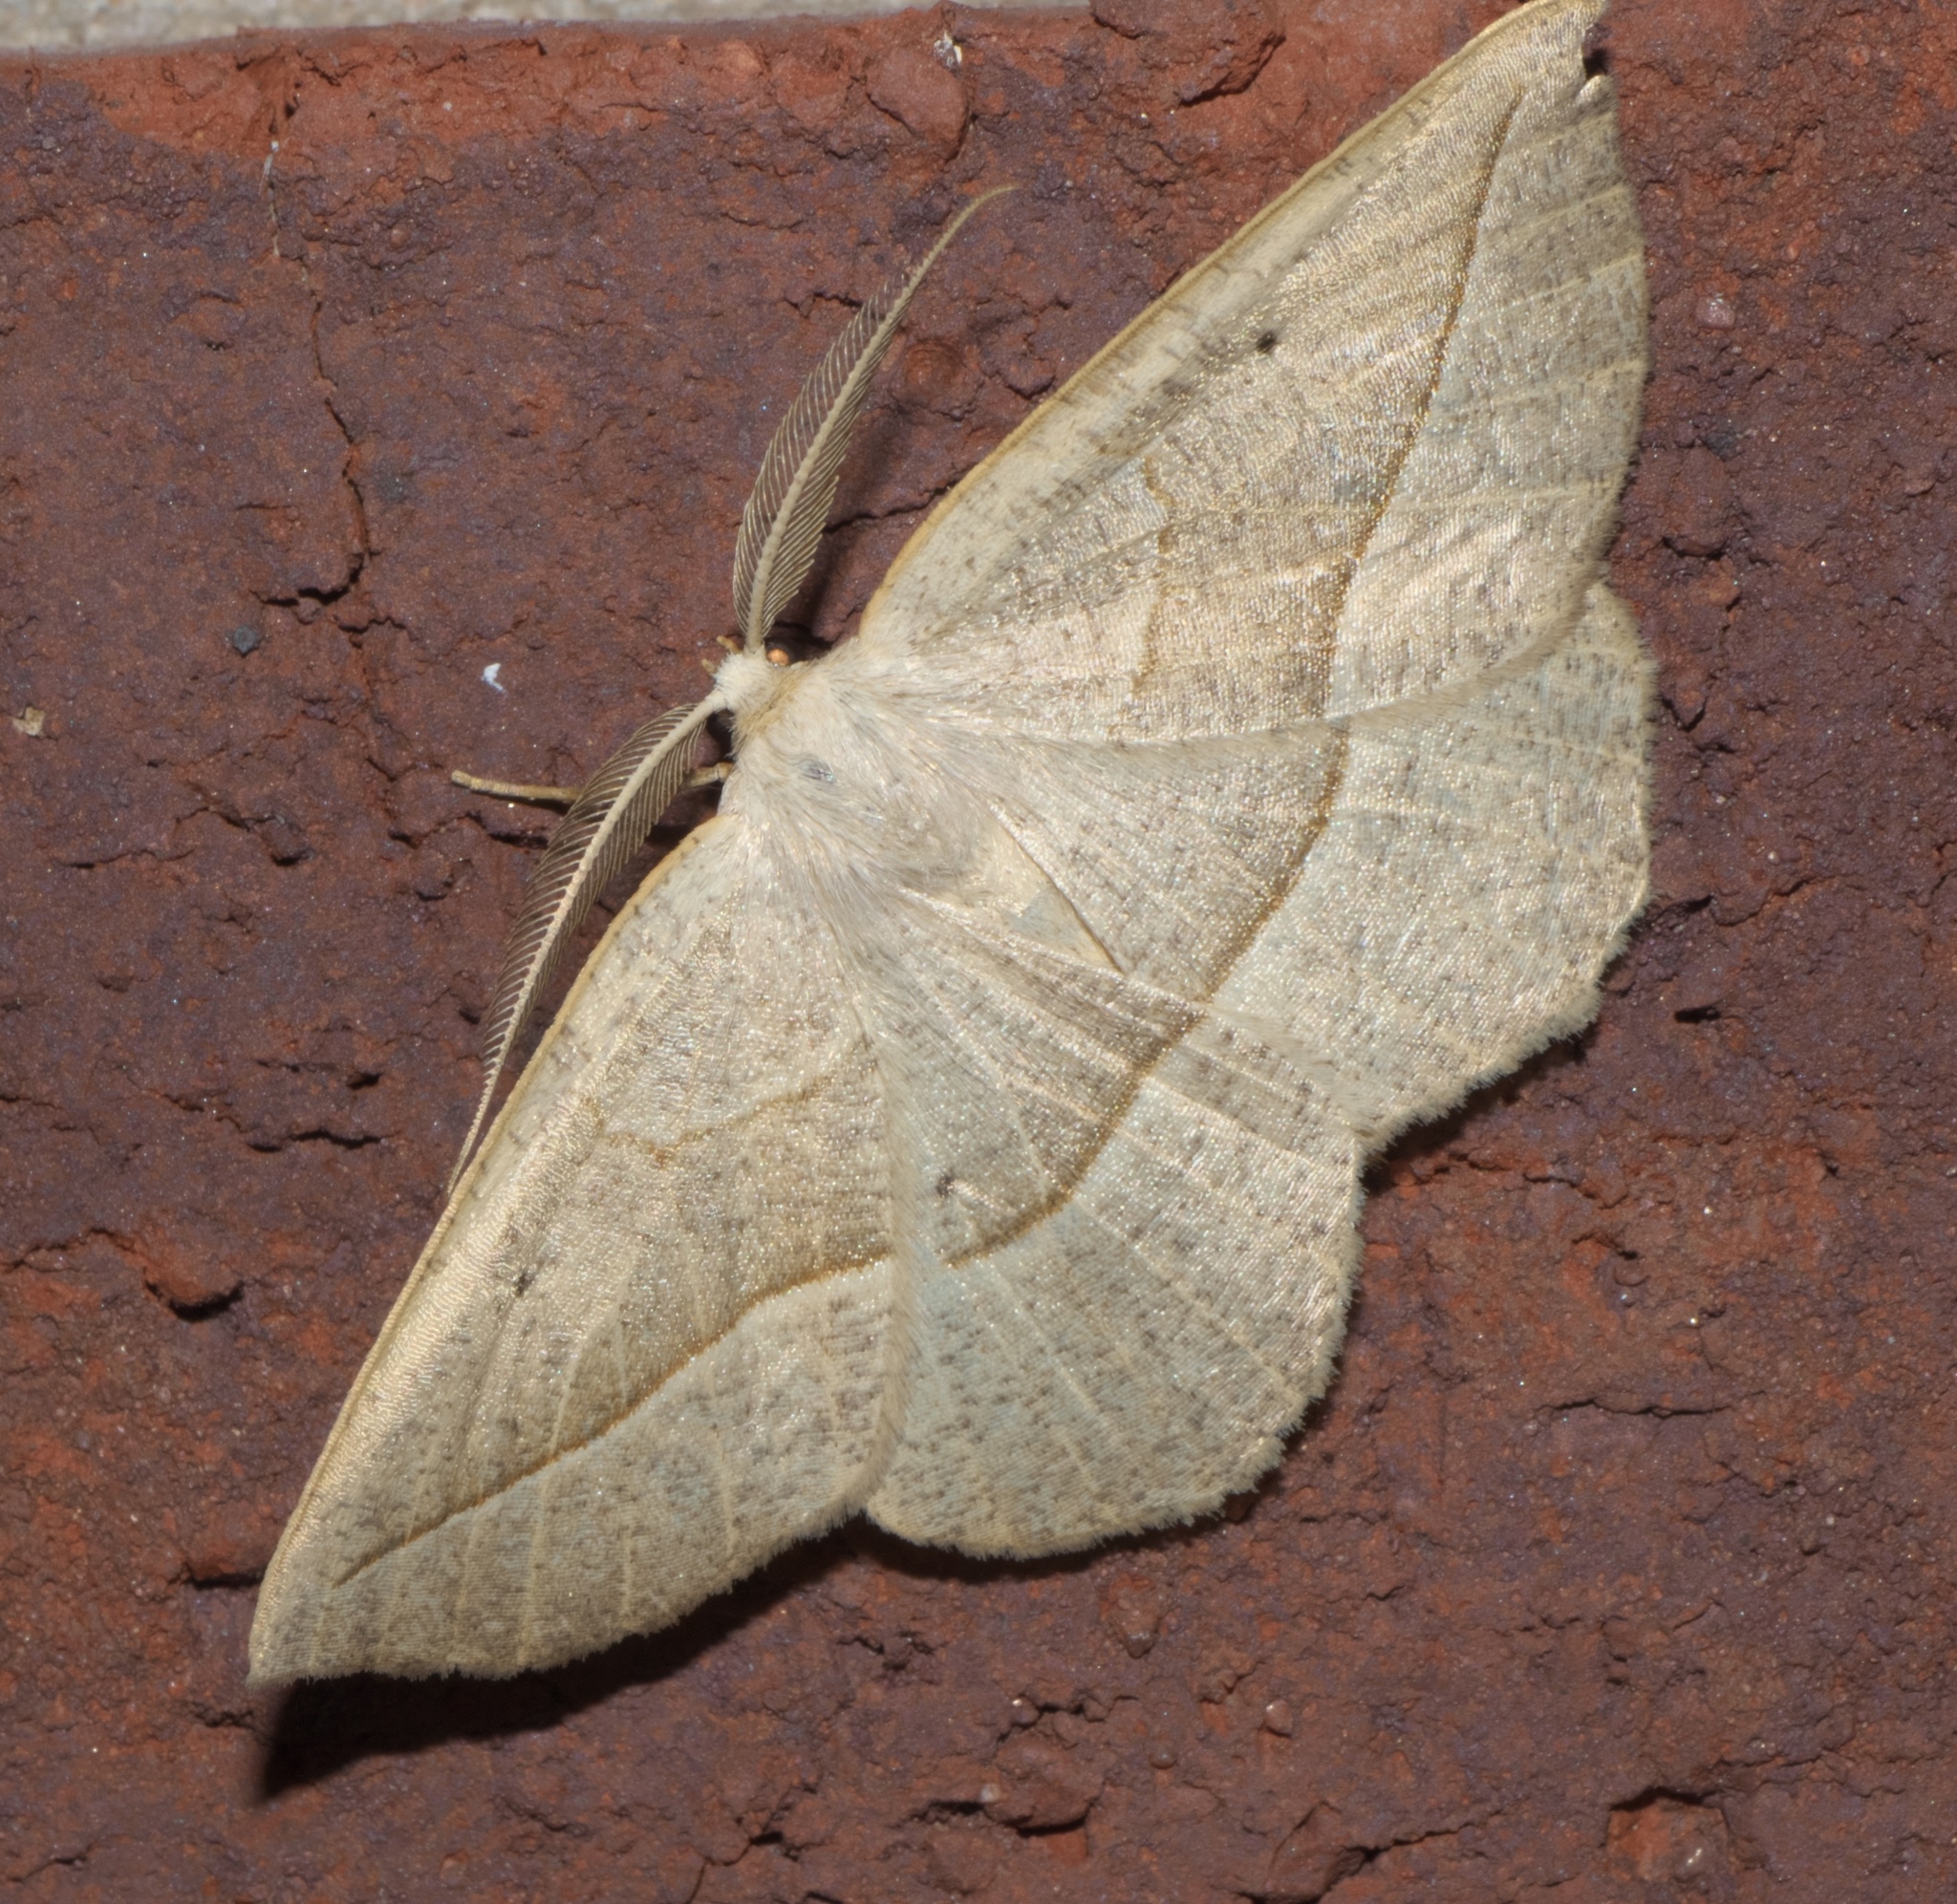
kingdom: Animalia
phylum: Arthropoda
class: Insecta
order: Lepidoptera
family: Geometridae
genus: Eusarca
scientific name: Eusarca confusaria
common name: Confused eusarca
